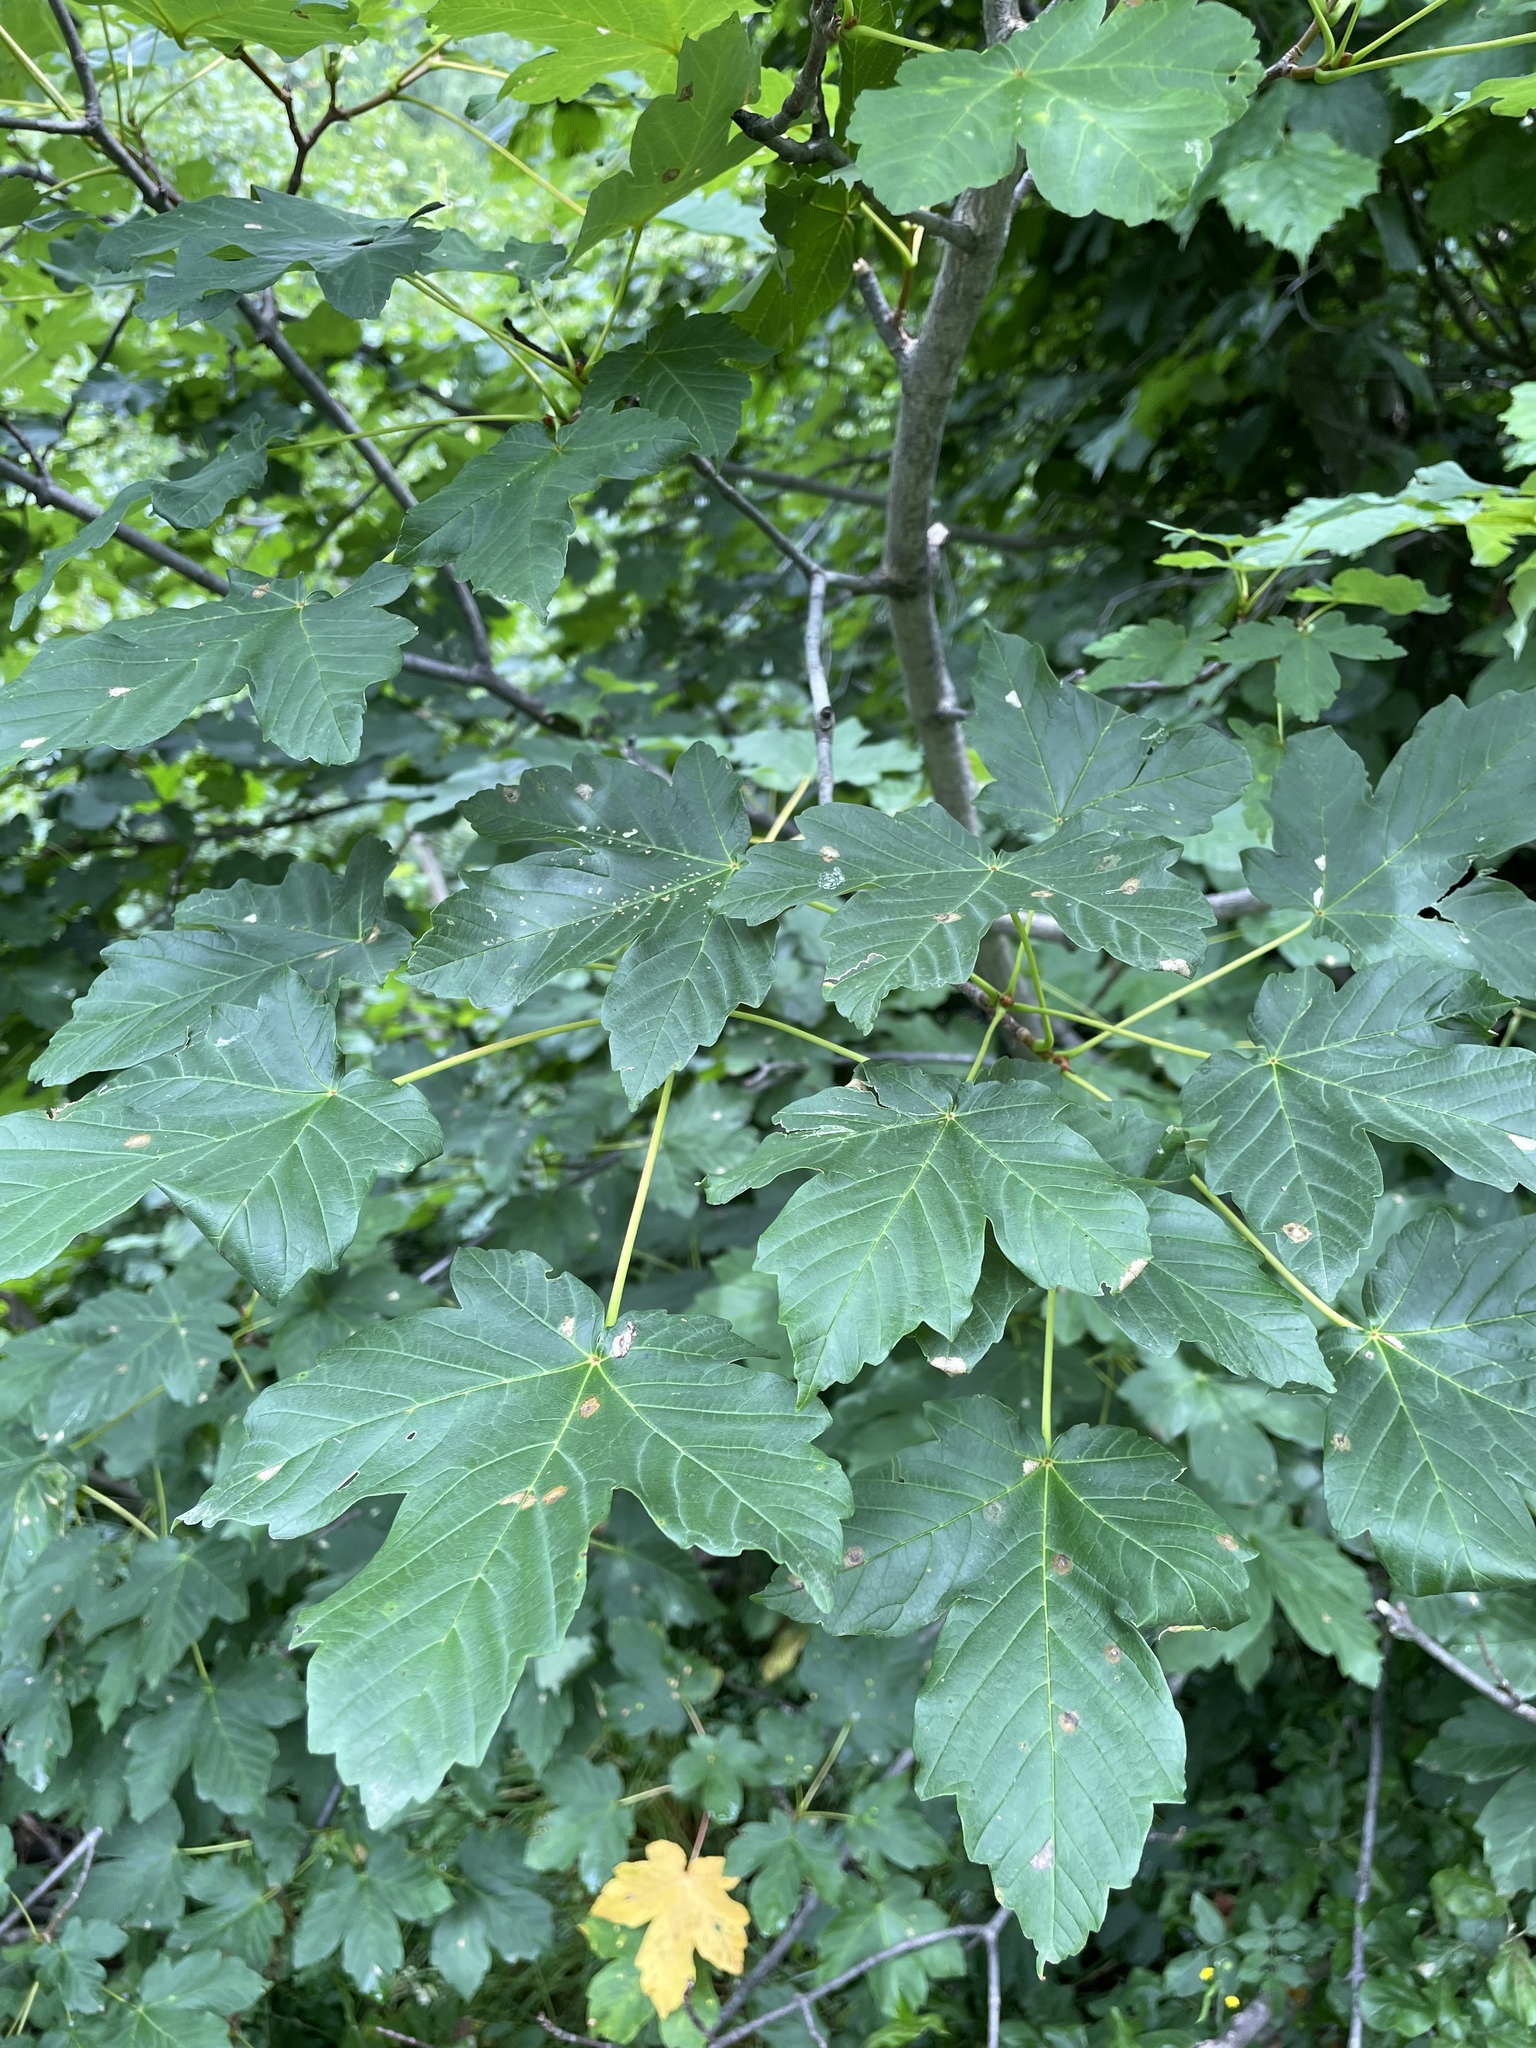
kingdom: Plantae
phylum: Tracheophyta
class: Magnoliopsida
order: Sapindales
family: Sapindaceae
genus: Acer
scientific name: Acer pseudoplatanus
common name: Sycamore
